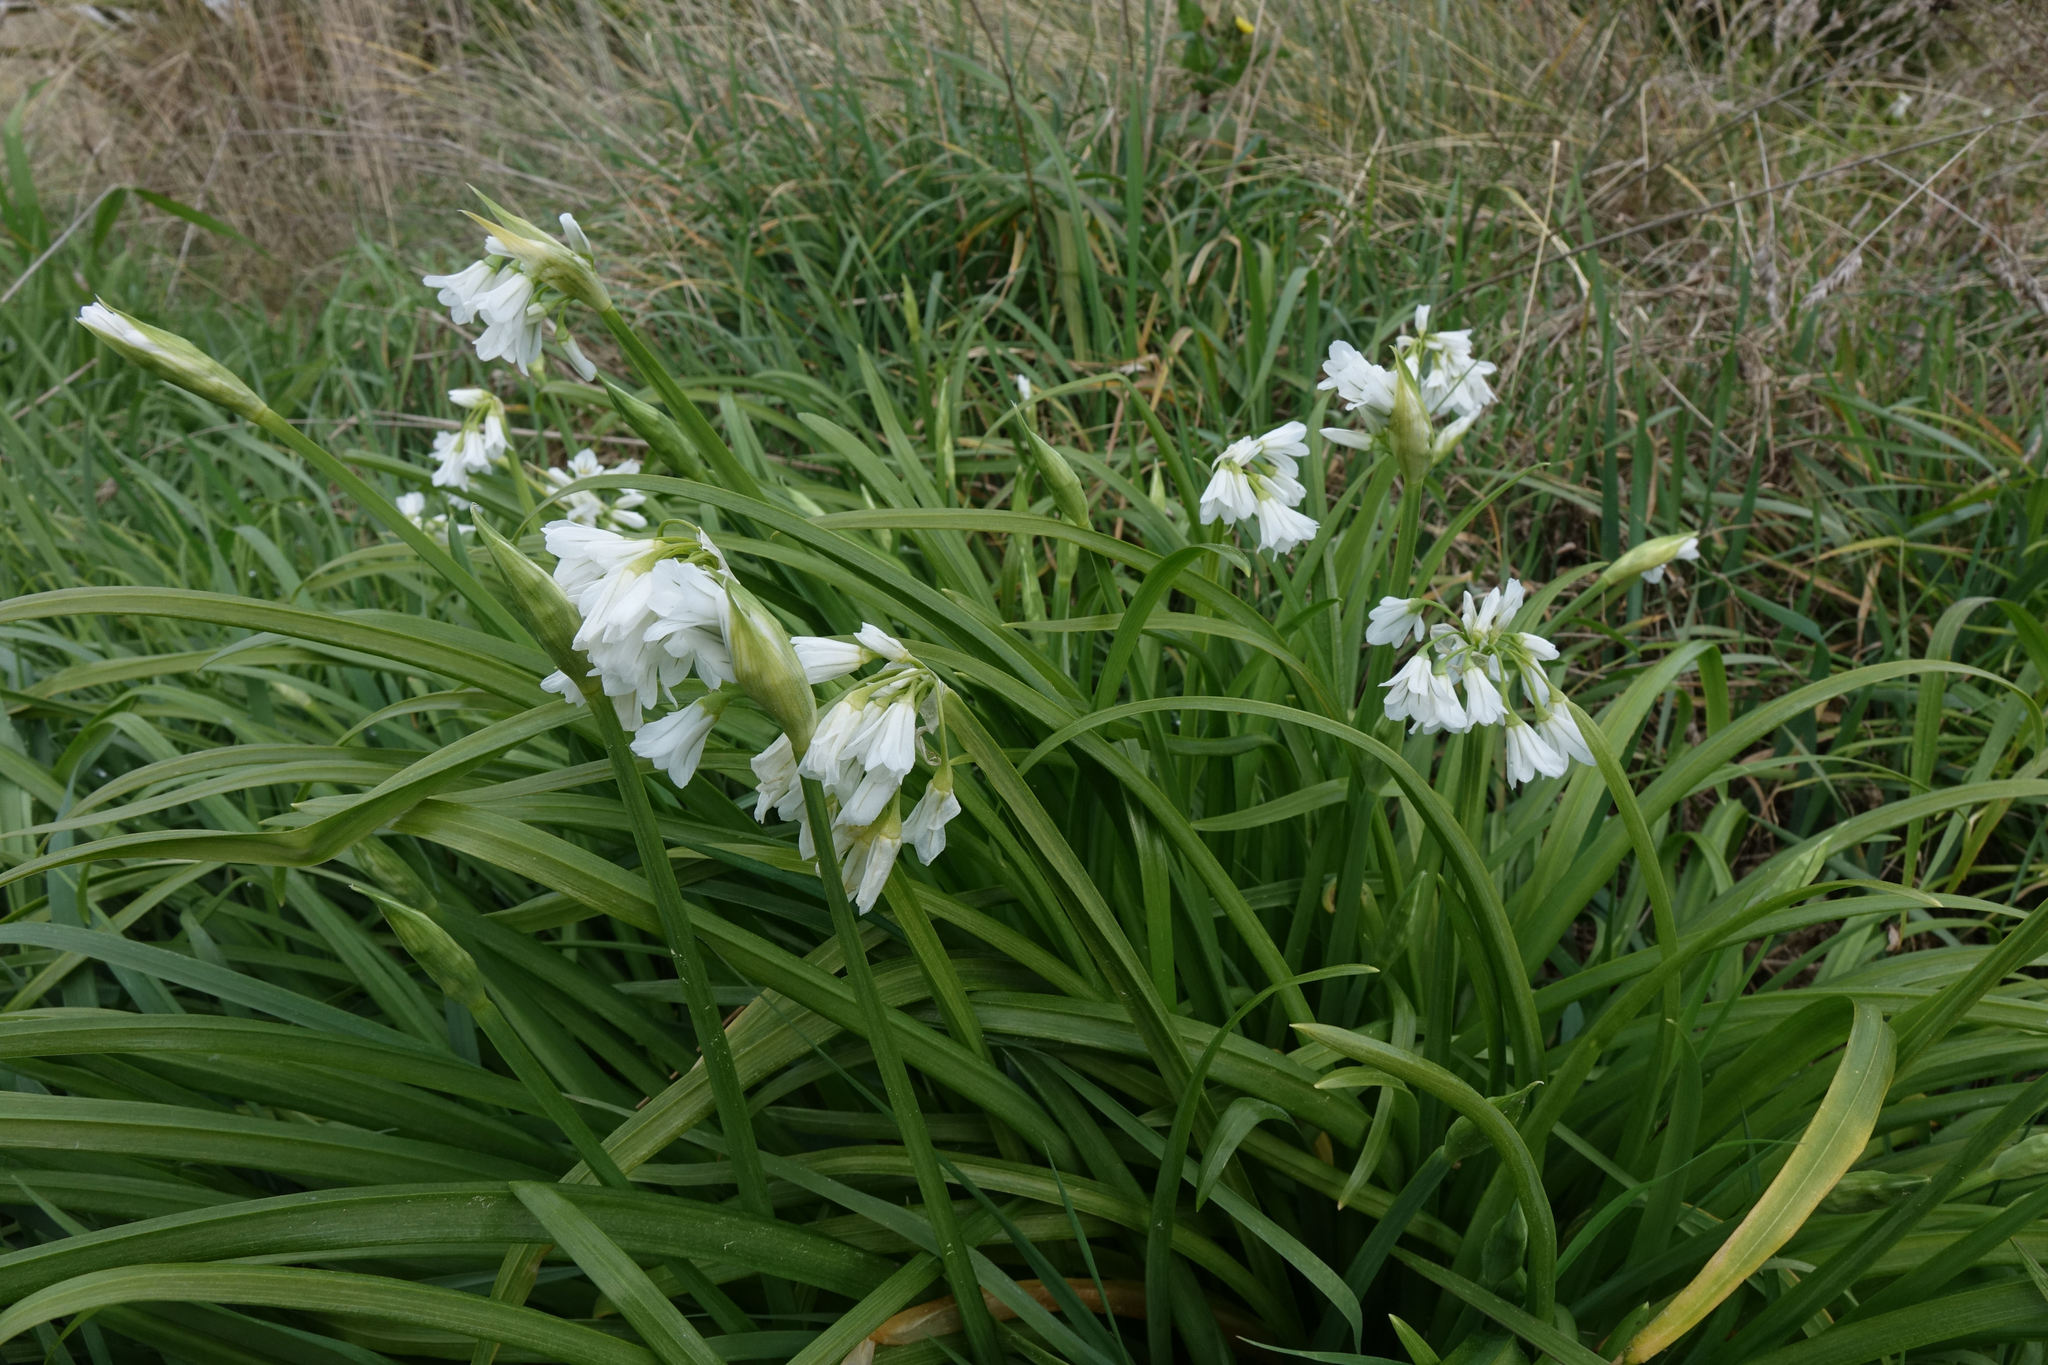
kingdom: Plantae
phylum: Tracheophyta
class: Liliopsida
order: Asparagales
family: Amaryllidaceae
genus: Allium
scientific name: Allium triquetrum
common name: Three-cornered garlic
